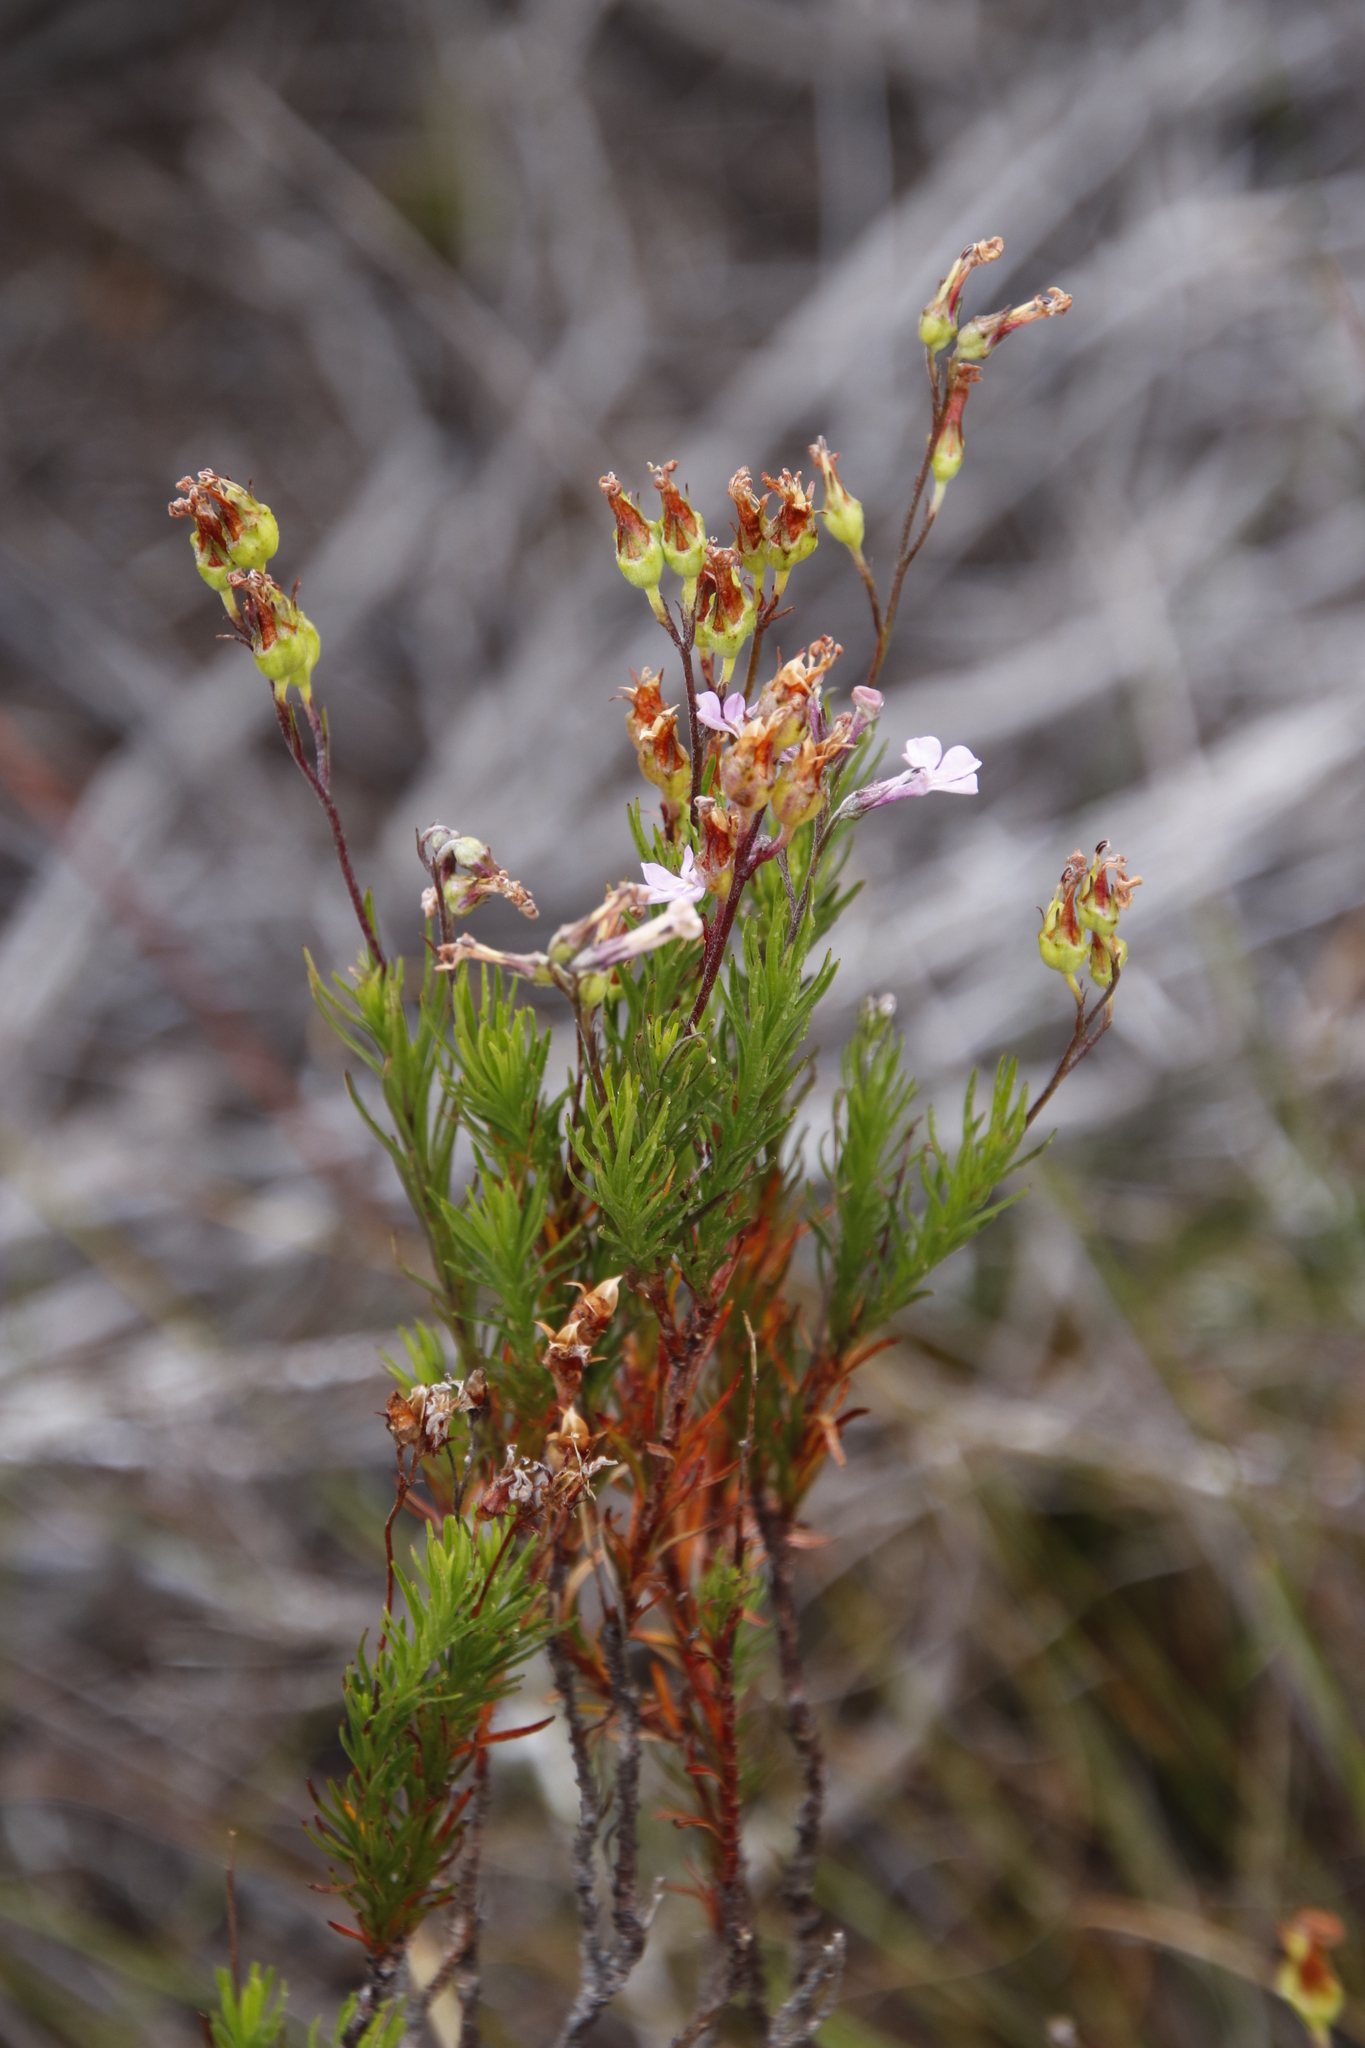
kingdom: Plantae
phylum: Tracheophyta
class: Magnoliopsida
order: Asterales
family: Campanulaceae
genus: Lobelia
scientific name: Lobelia pinifolia
